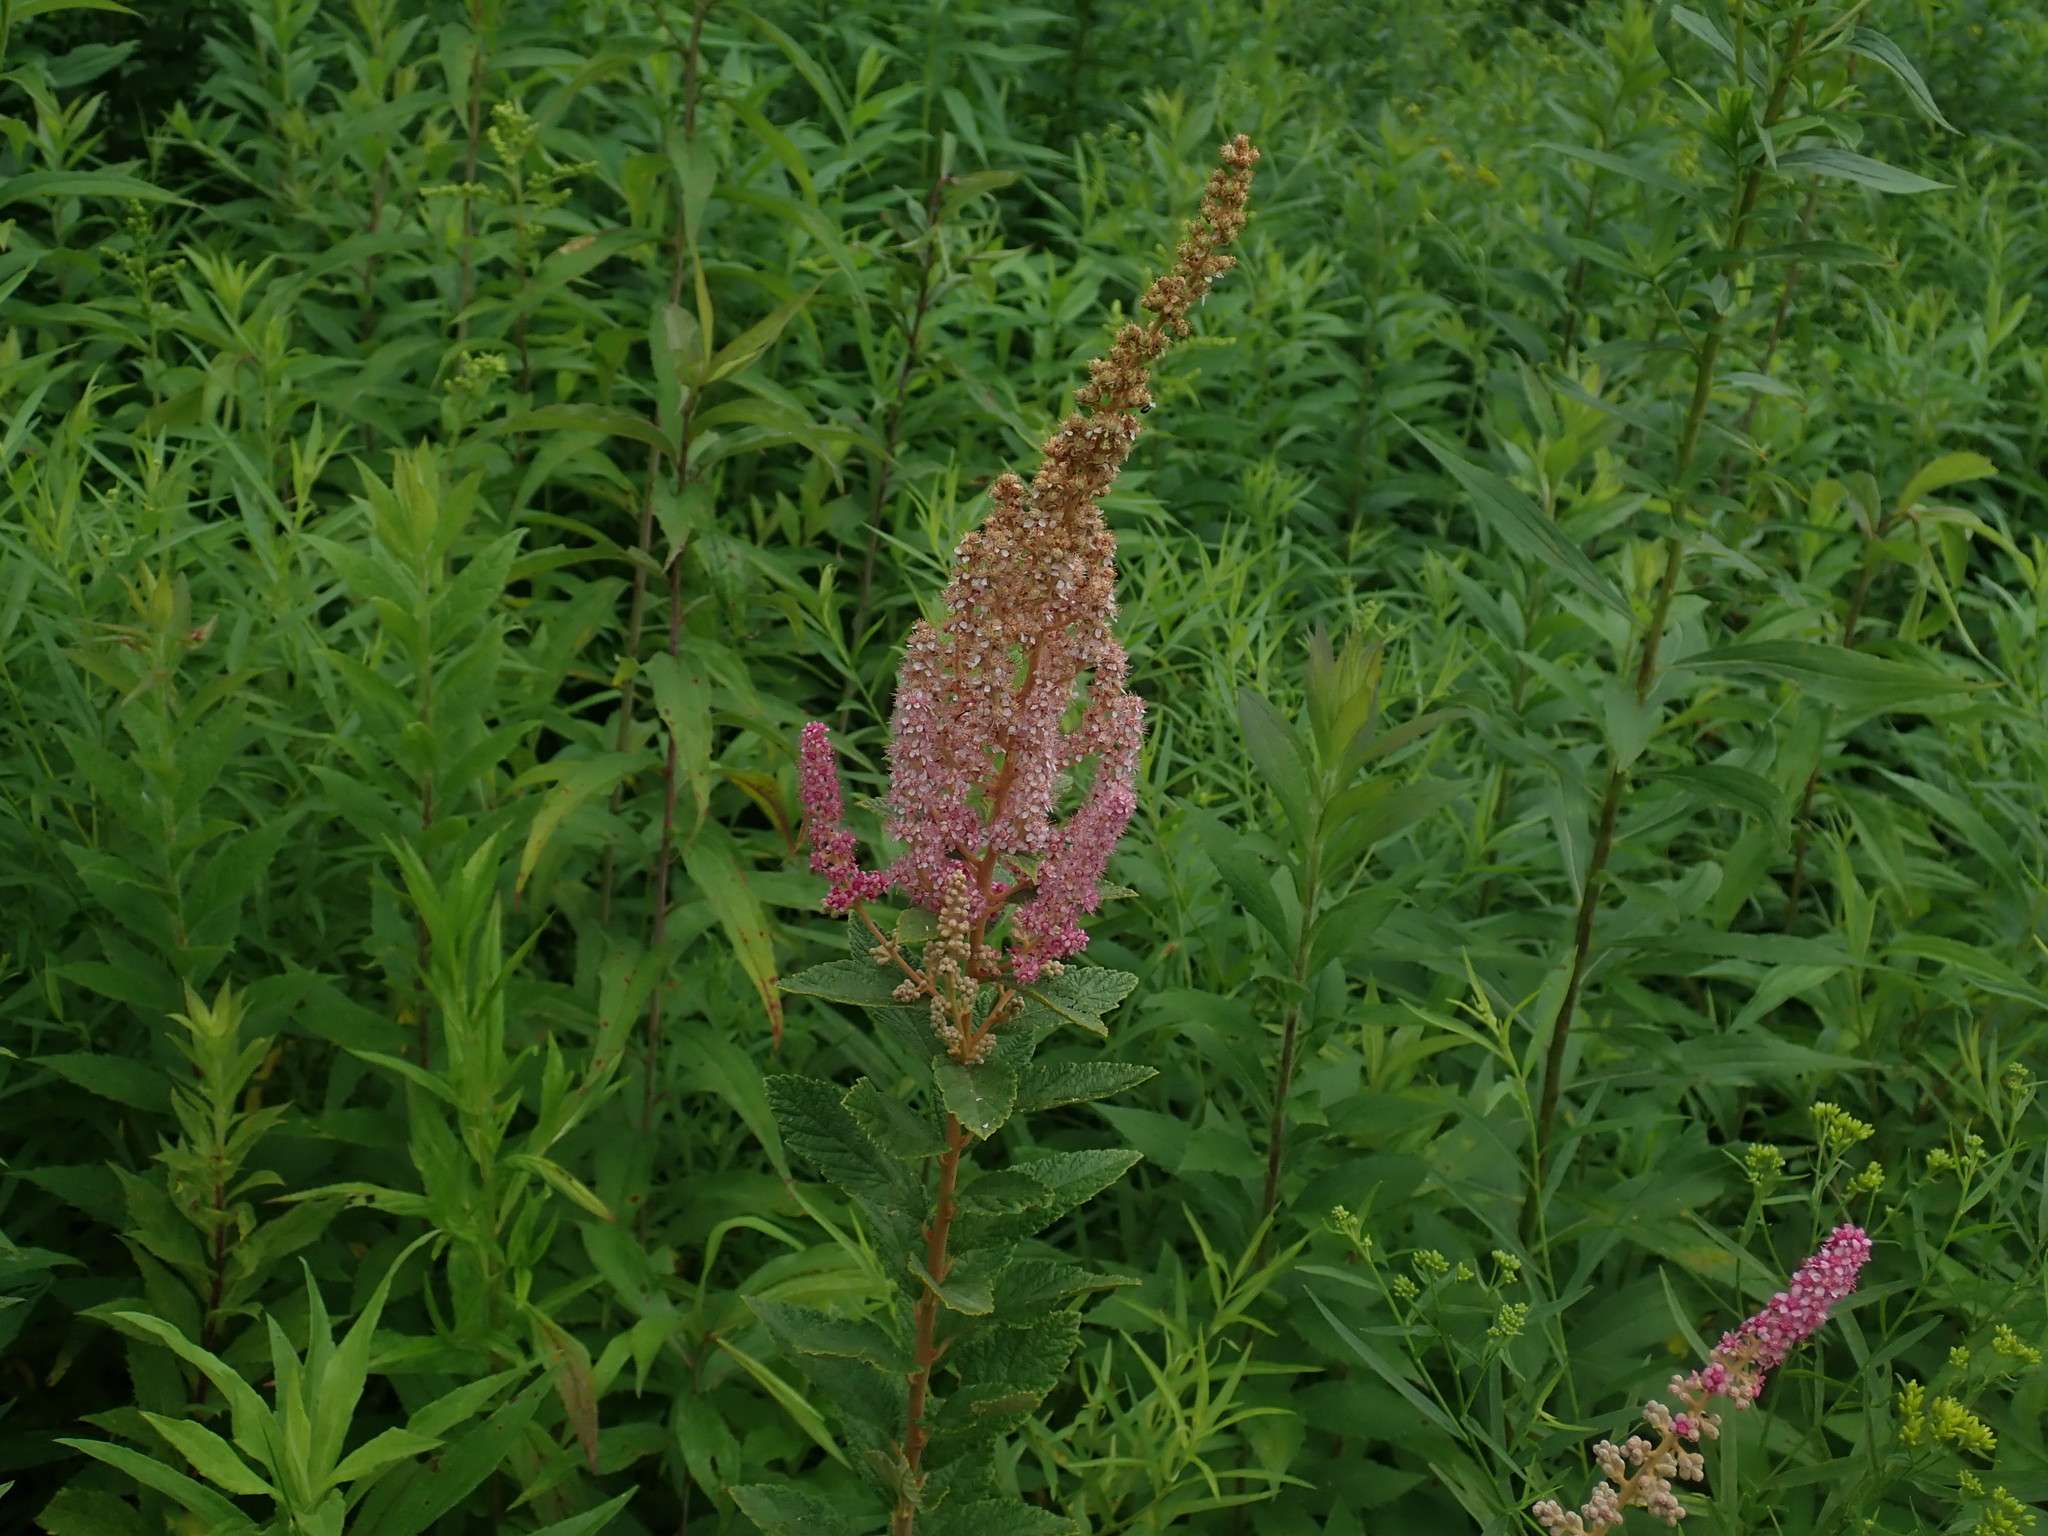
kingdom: Plantae
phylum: Tracheophyta
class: Magnoliopsida
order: Rosales
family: Rosaceae
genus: Spiraea
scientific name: Spiraea tomentosa
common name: Hardhack
